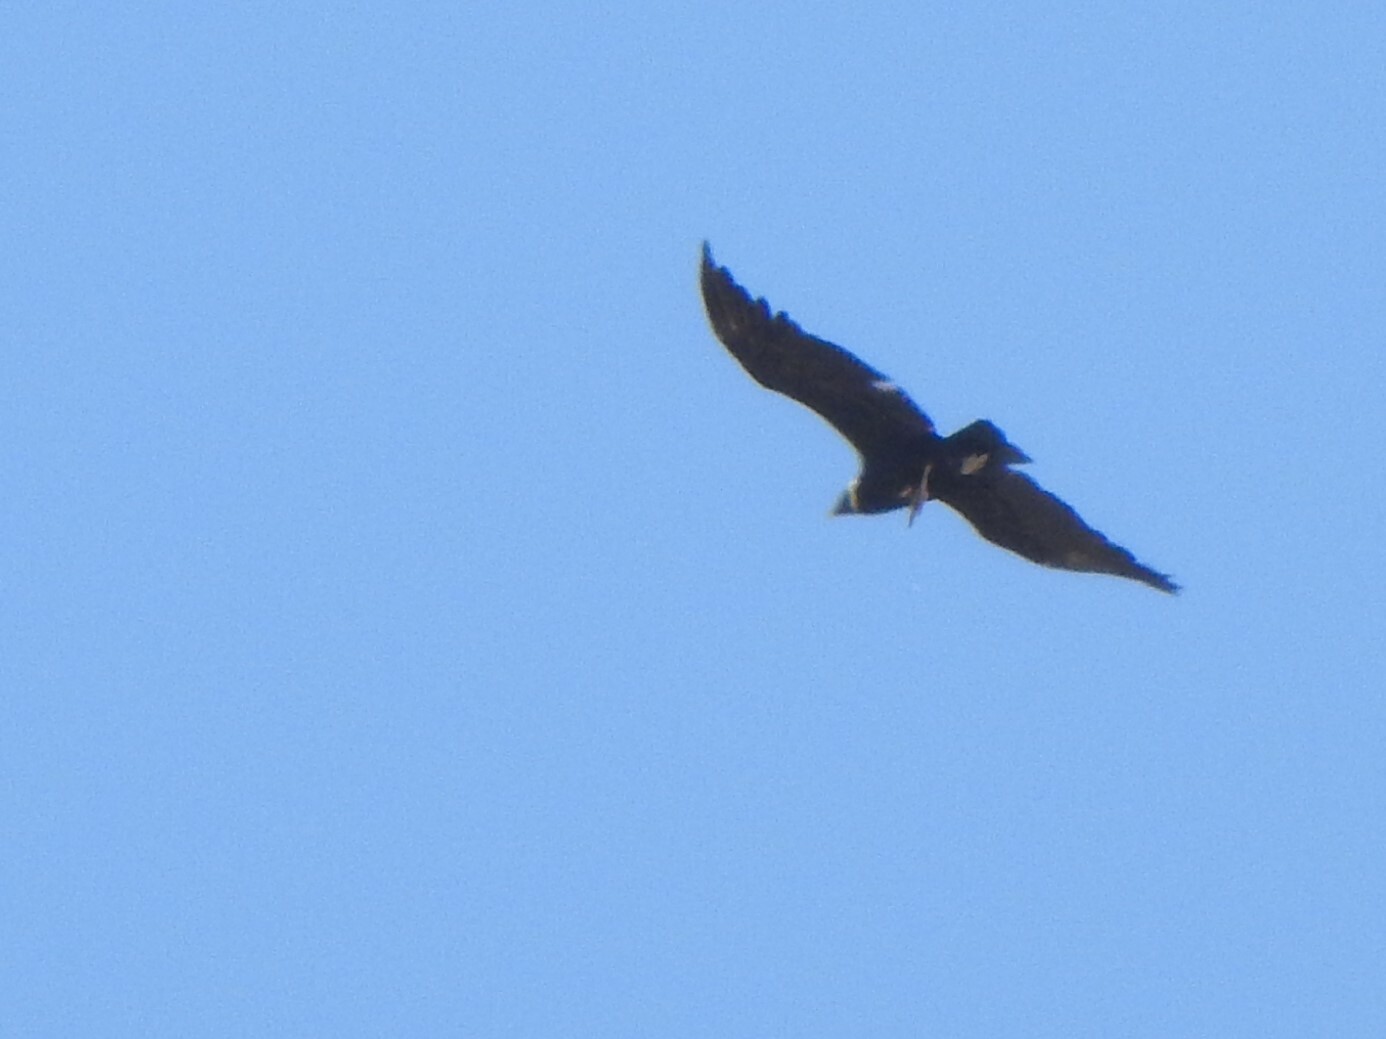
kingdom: Animalia
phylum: Chordata
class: Aves
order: Accipitriformes
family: Cathartidae
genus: Vultur
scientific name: Vultur gryphus
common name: Andean condor
